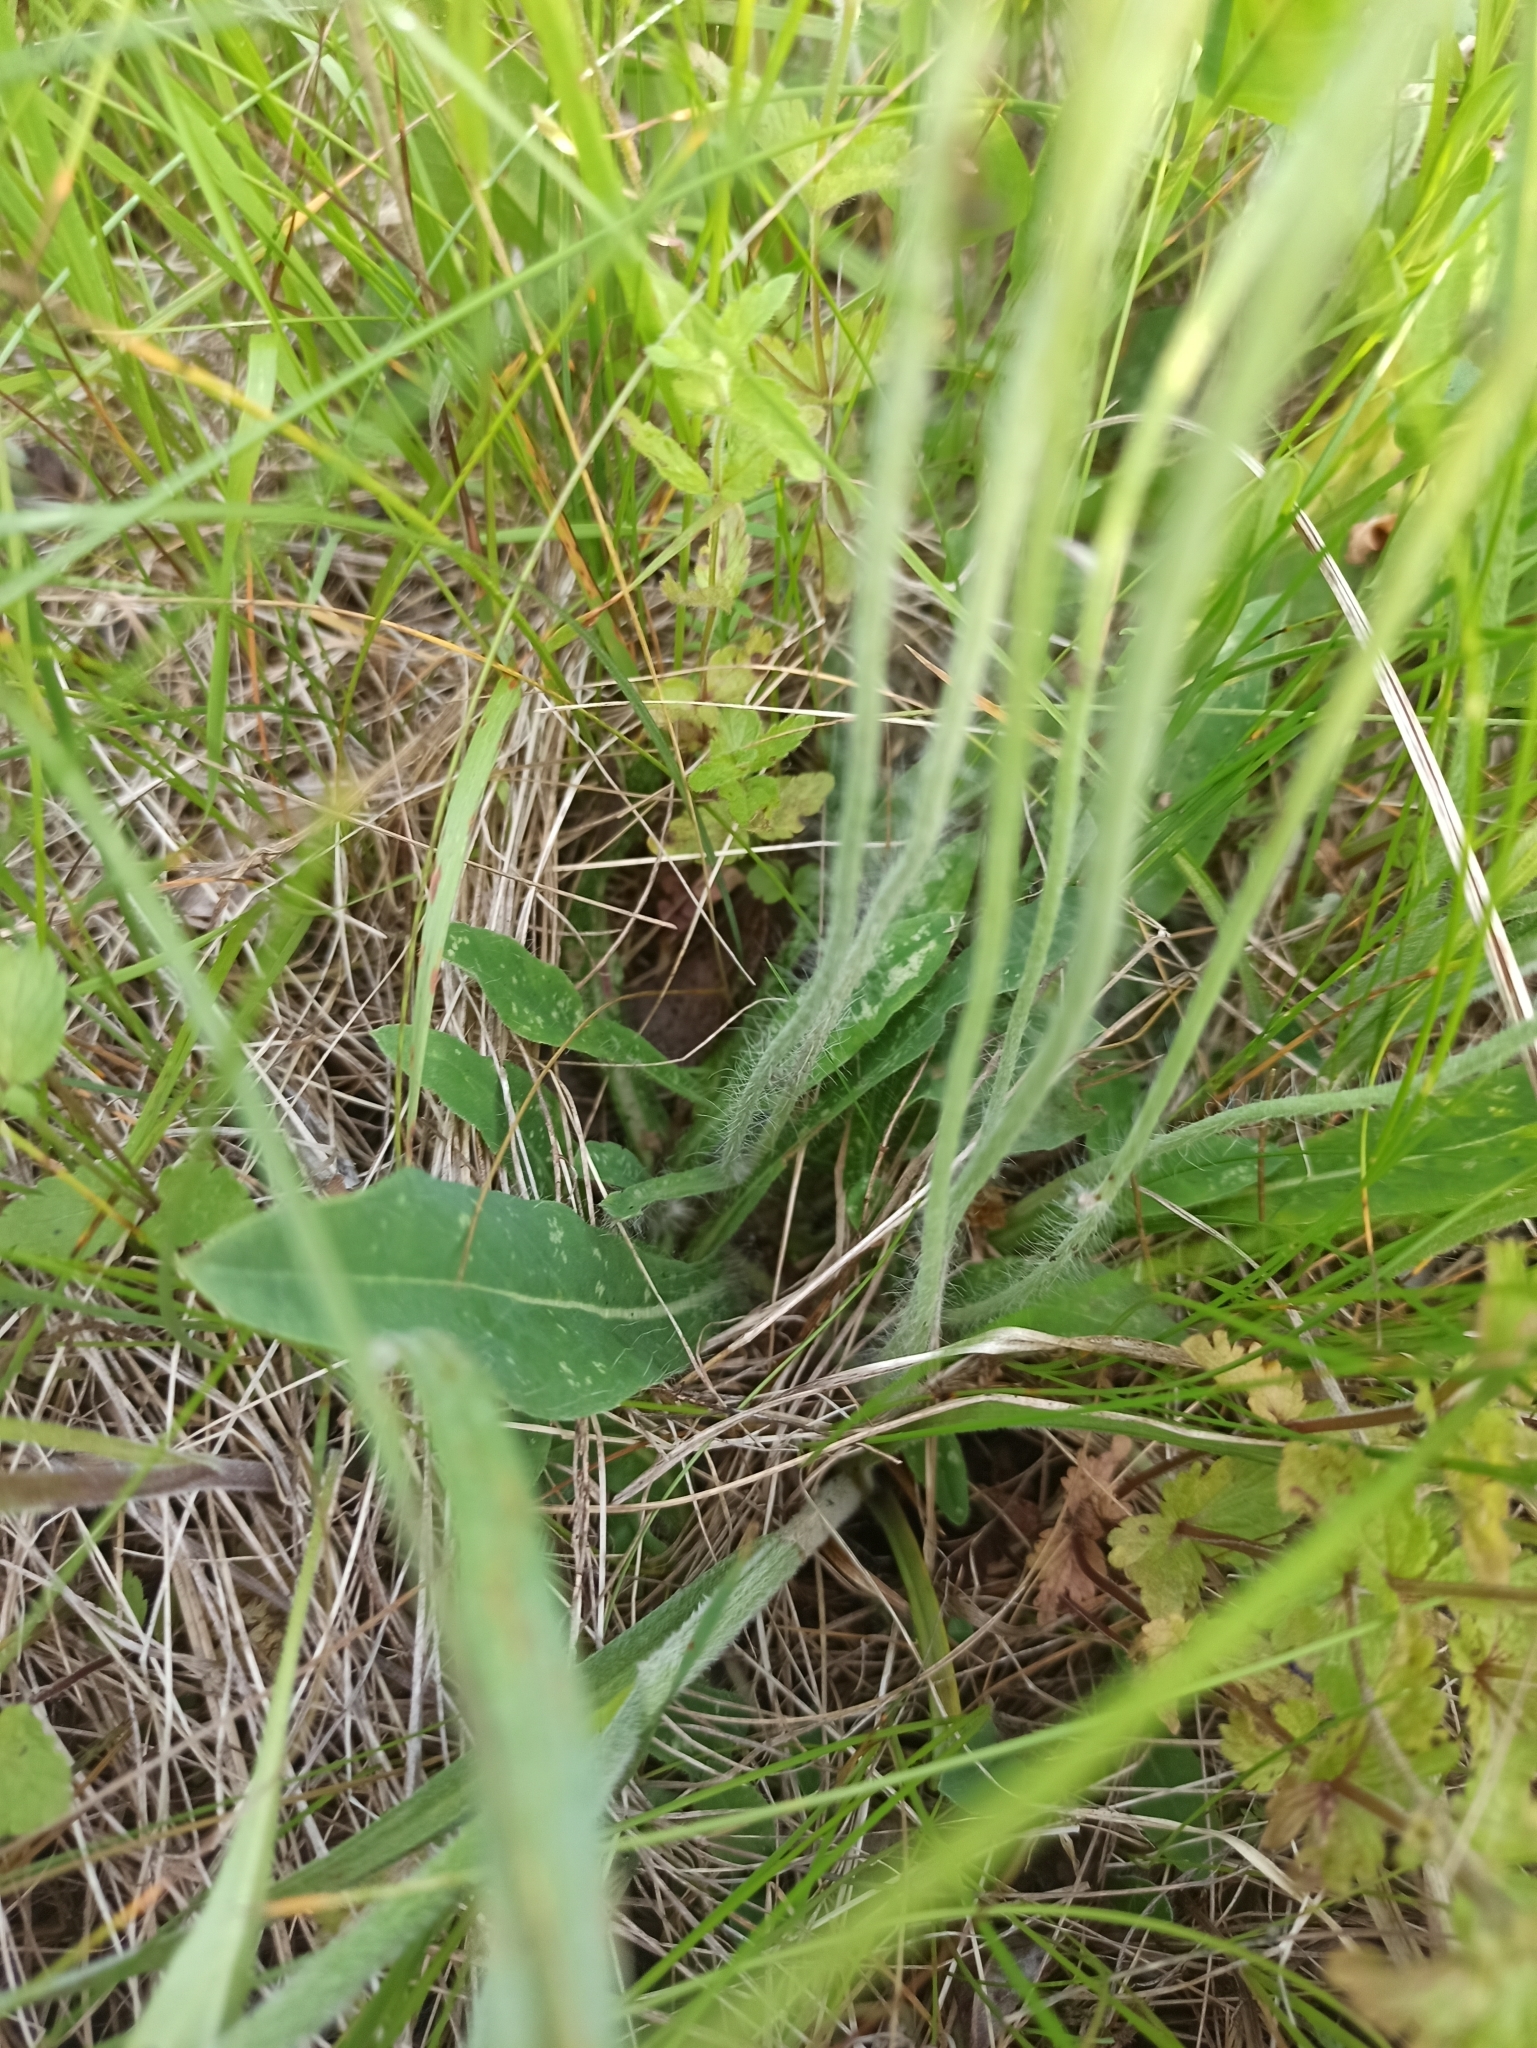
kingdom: Plantae
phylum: Tracheophyta
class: Magnoliopsida
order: Asterales
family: Asteraceae
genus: Pilosella
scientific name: Pilosella officinarum
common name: Mouse-ear hawkweed
